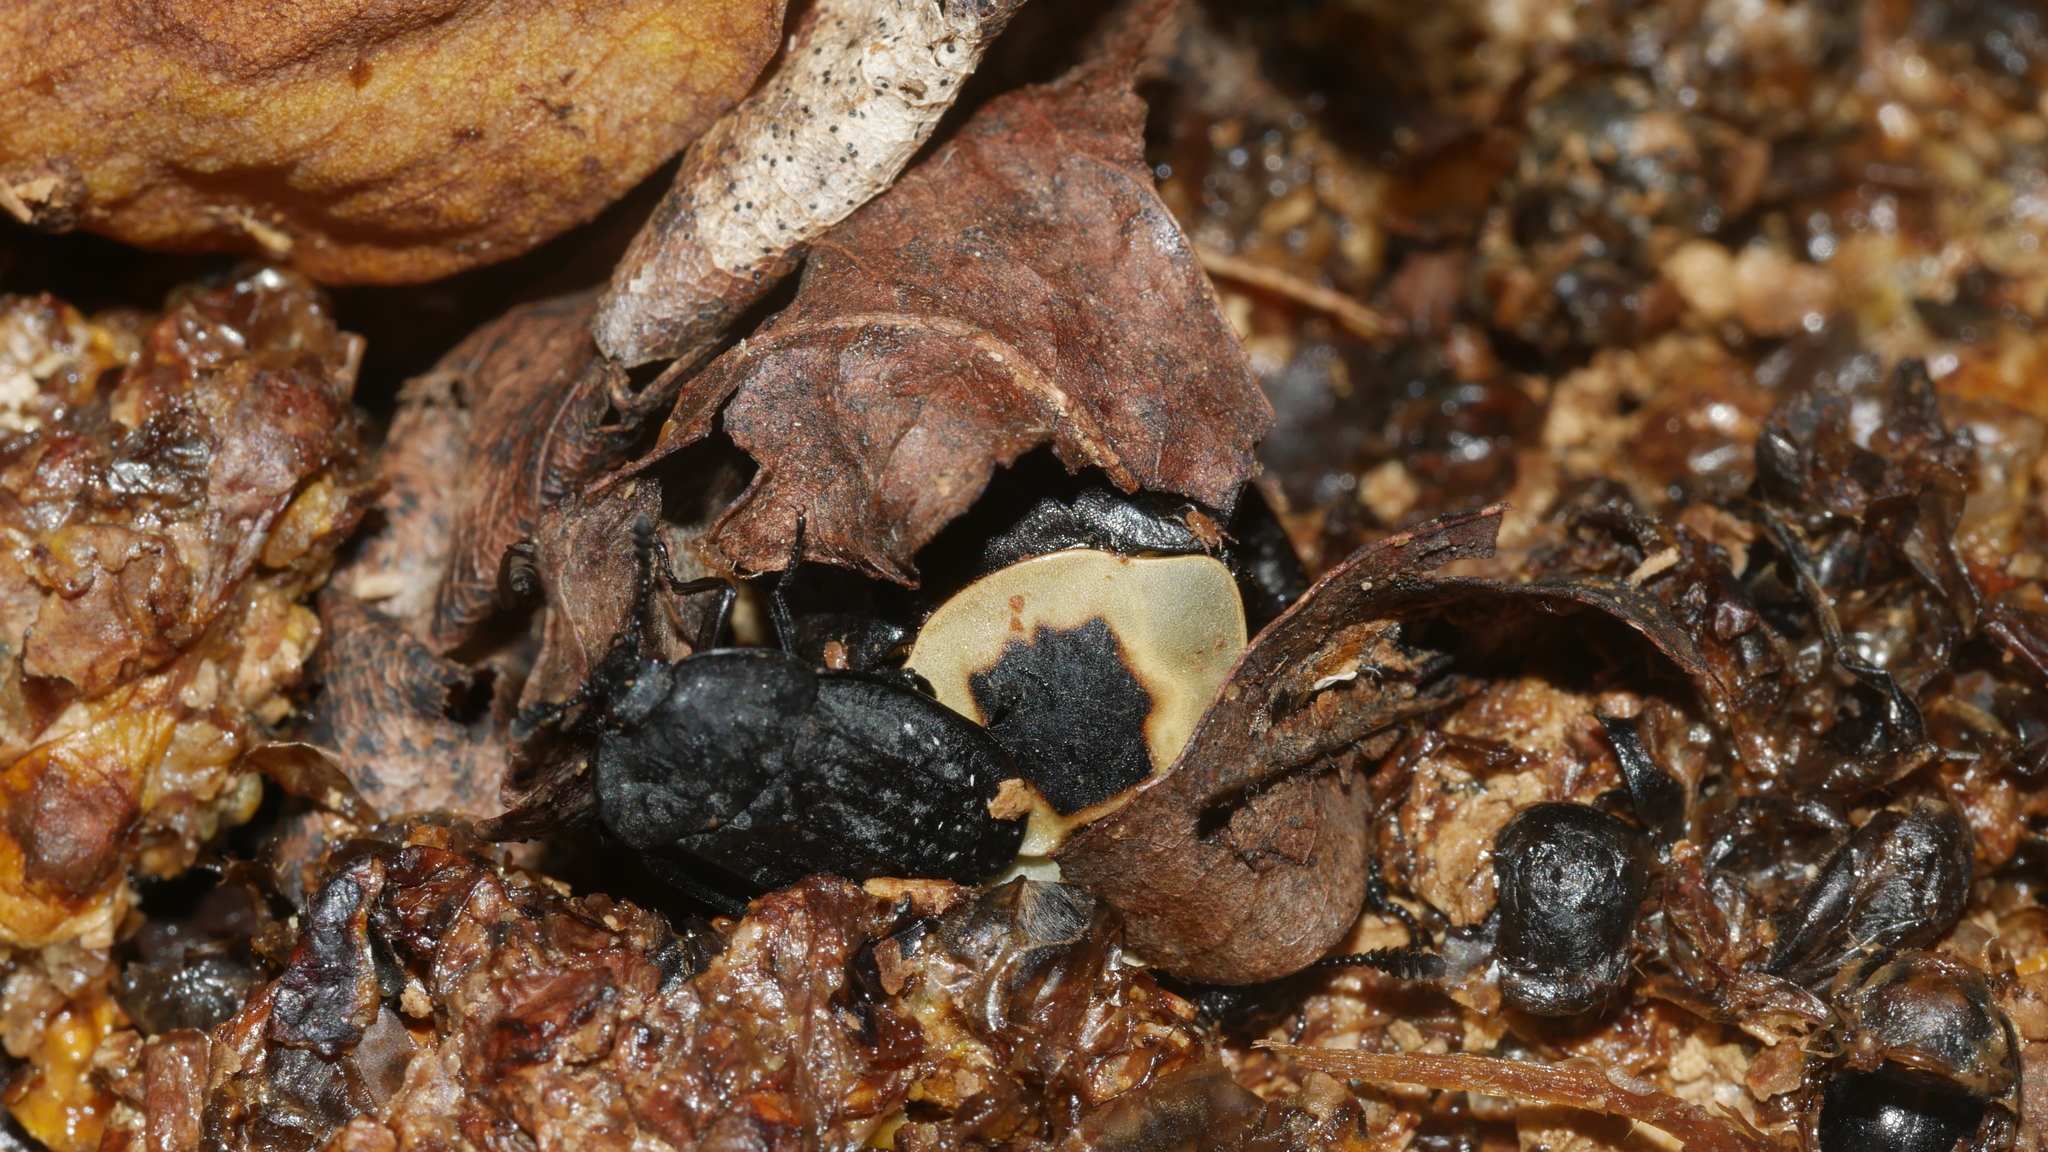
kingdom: Animalia
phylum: Arthropoda
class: Insecta
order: Coleoptera
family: Staphylinidae
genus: Necrophila
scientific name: Necrophila americana
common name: American carrion beetle
